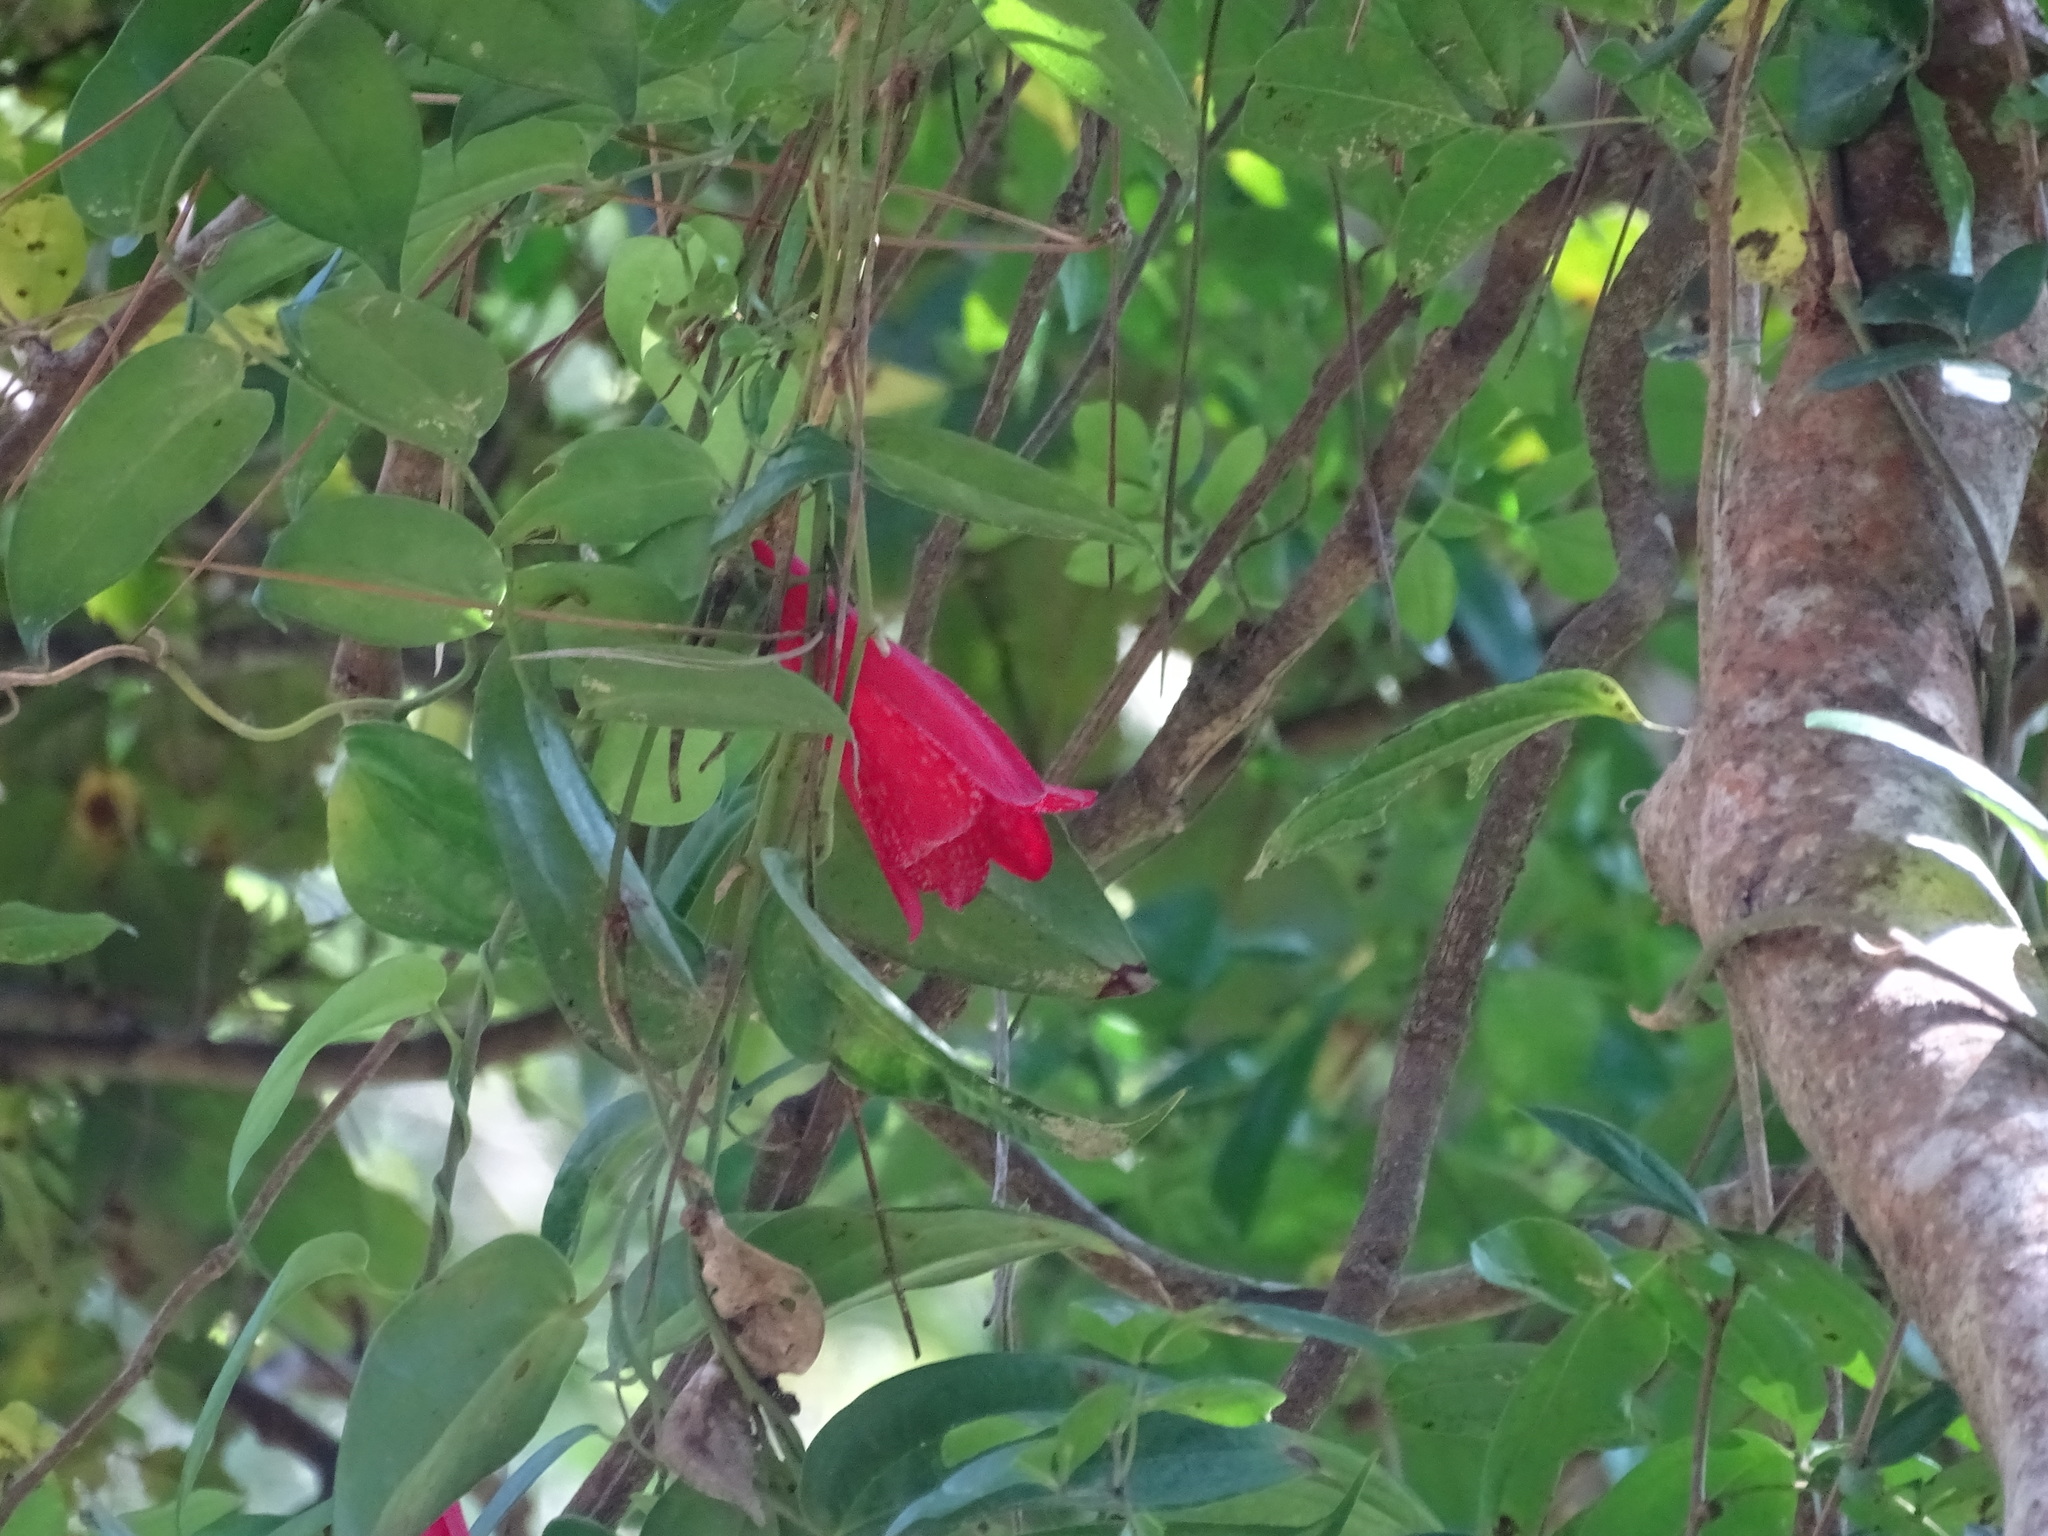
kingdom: Plantae
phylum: Tracheophyta
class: Liliopsida
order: Liliales
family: Philesiaceae
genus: Lapageria
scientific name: Lapageria rosea
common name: Chilean-bellflower
